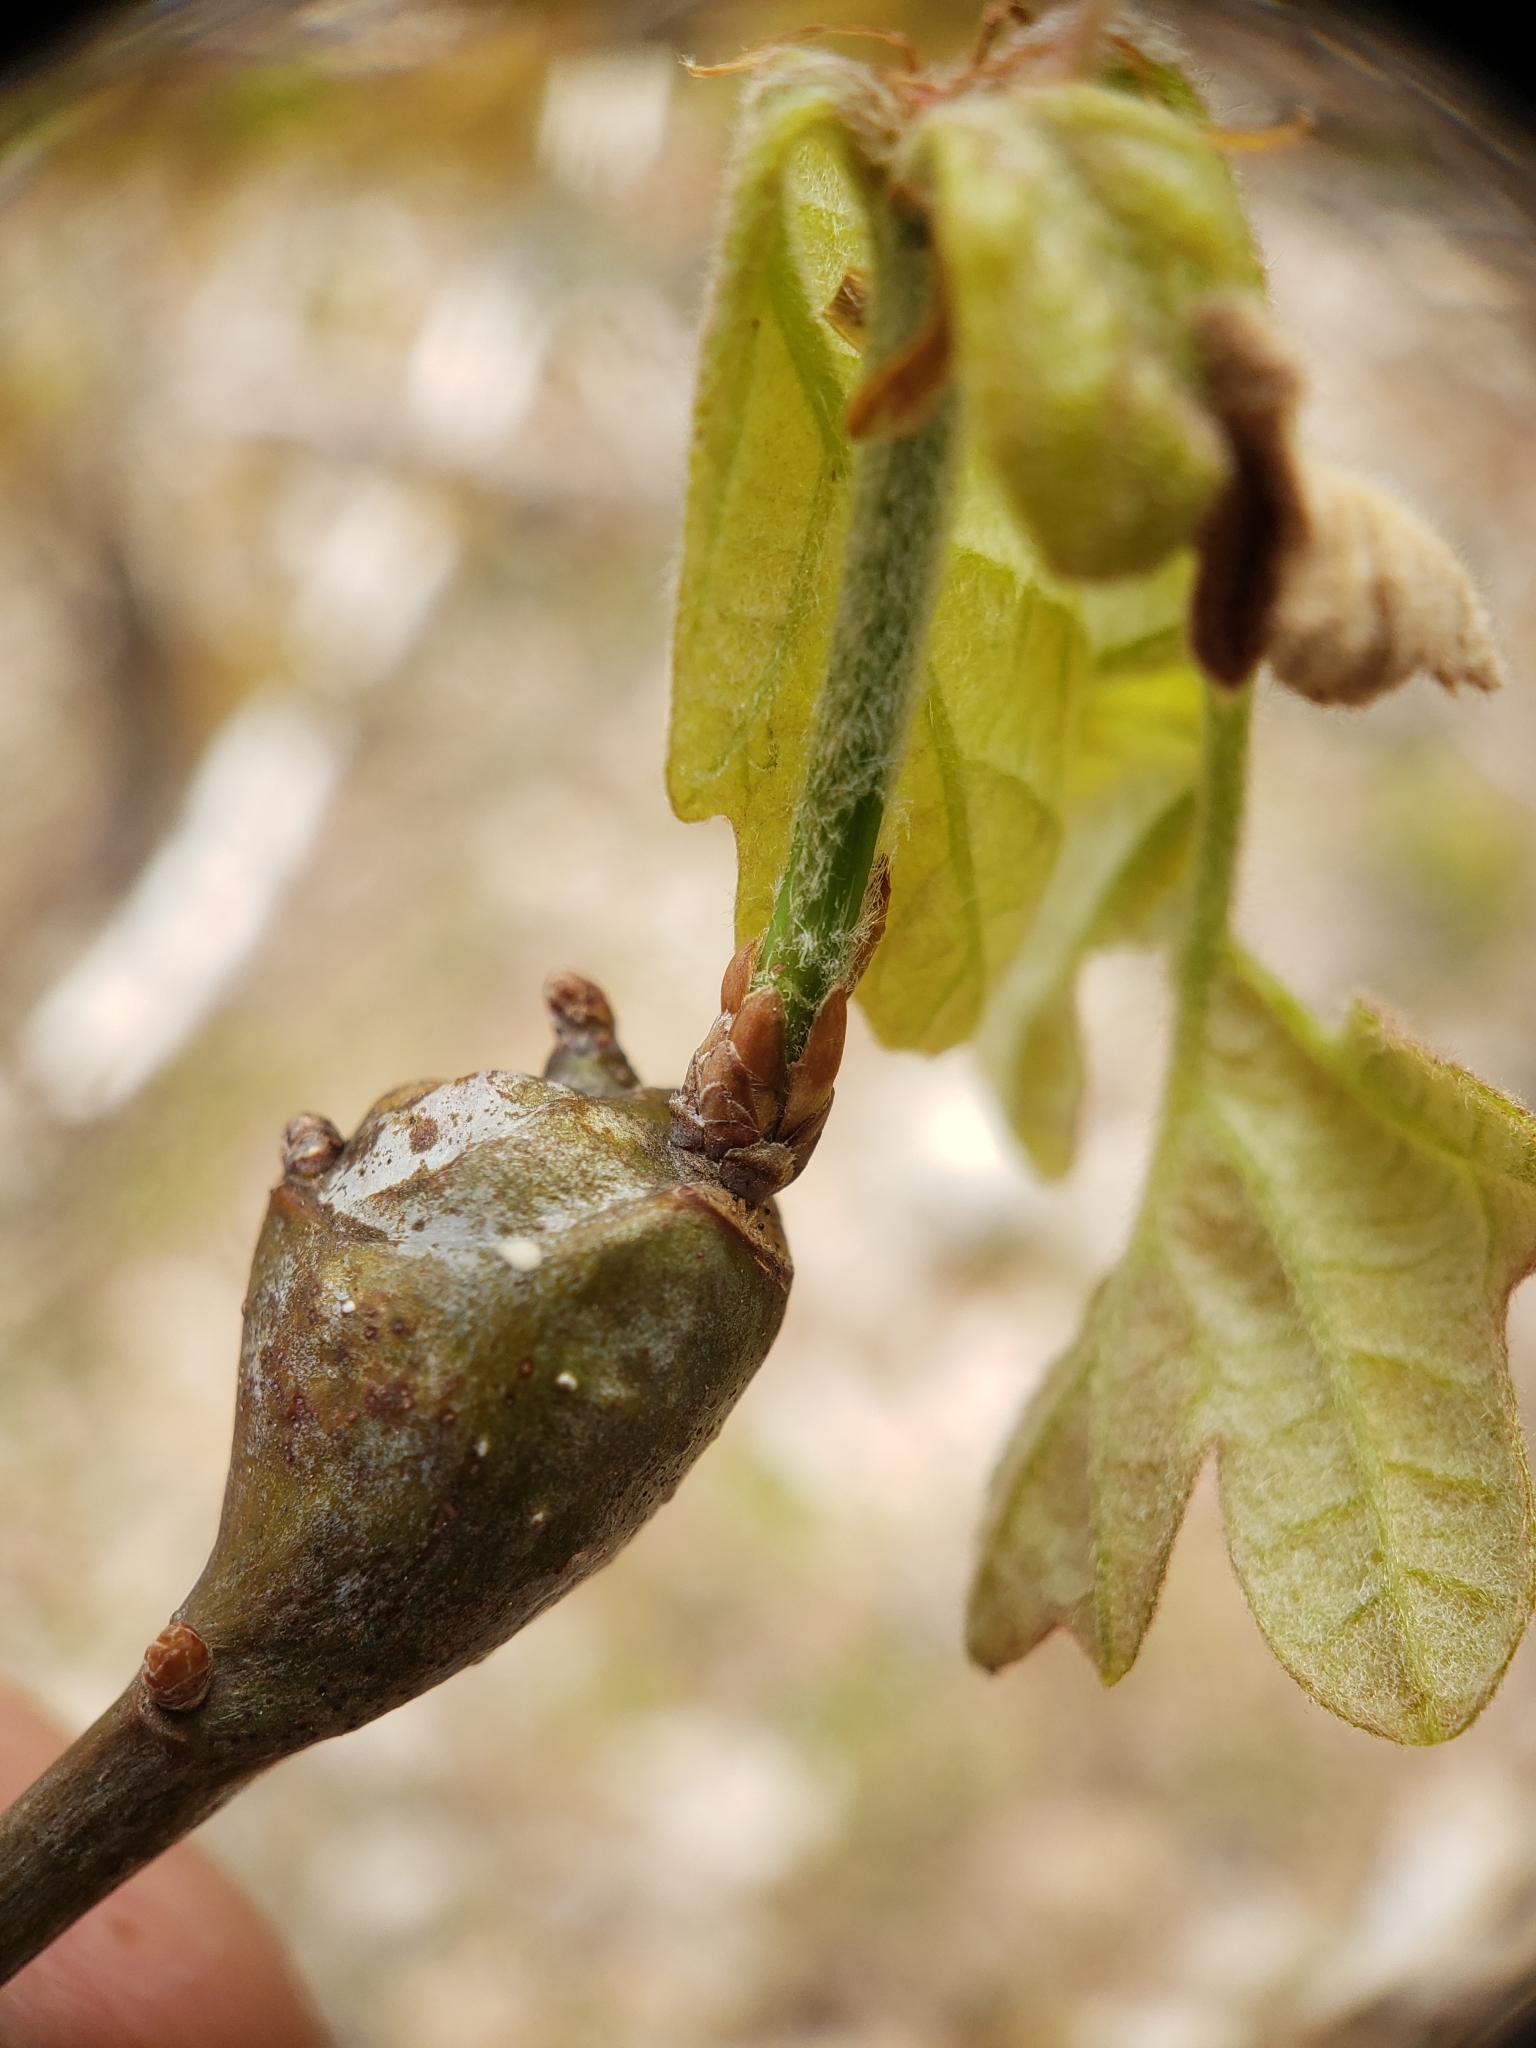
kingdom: Animalia
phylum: Arthropoda
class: Insecta
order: Hymenoptera
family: Cynipidae
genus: Callirhytis
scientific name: Callirhytis clavula
